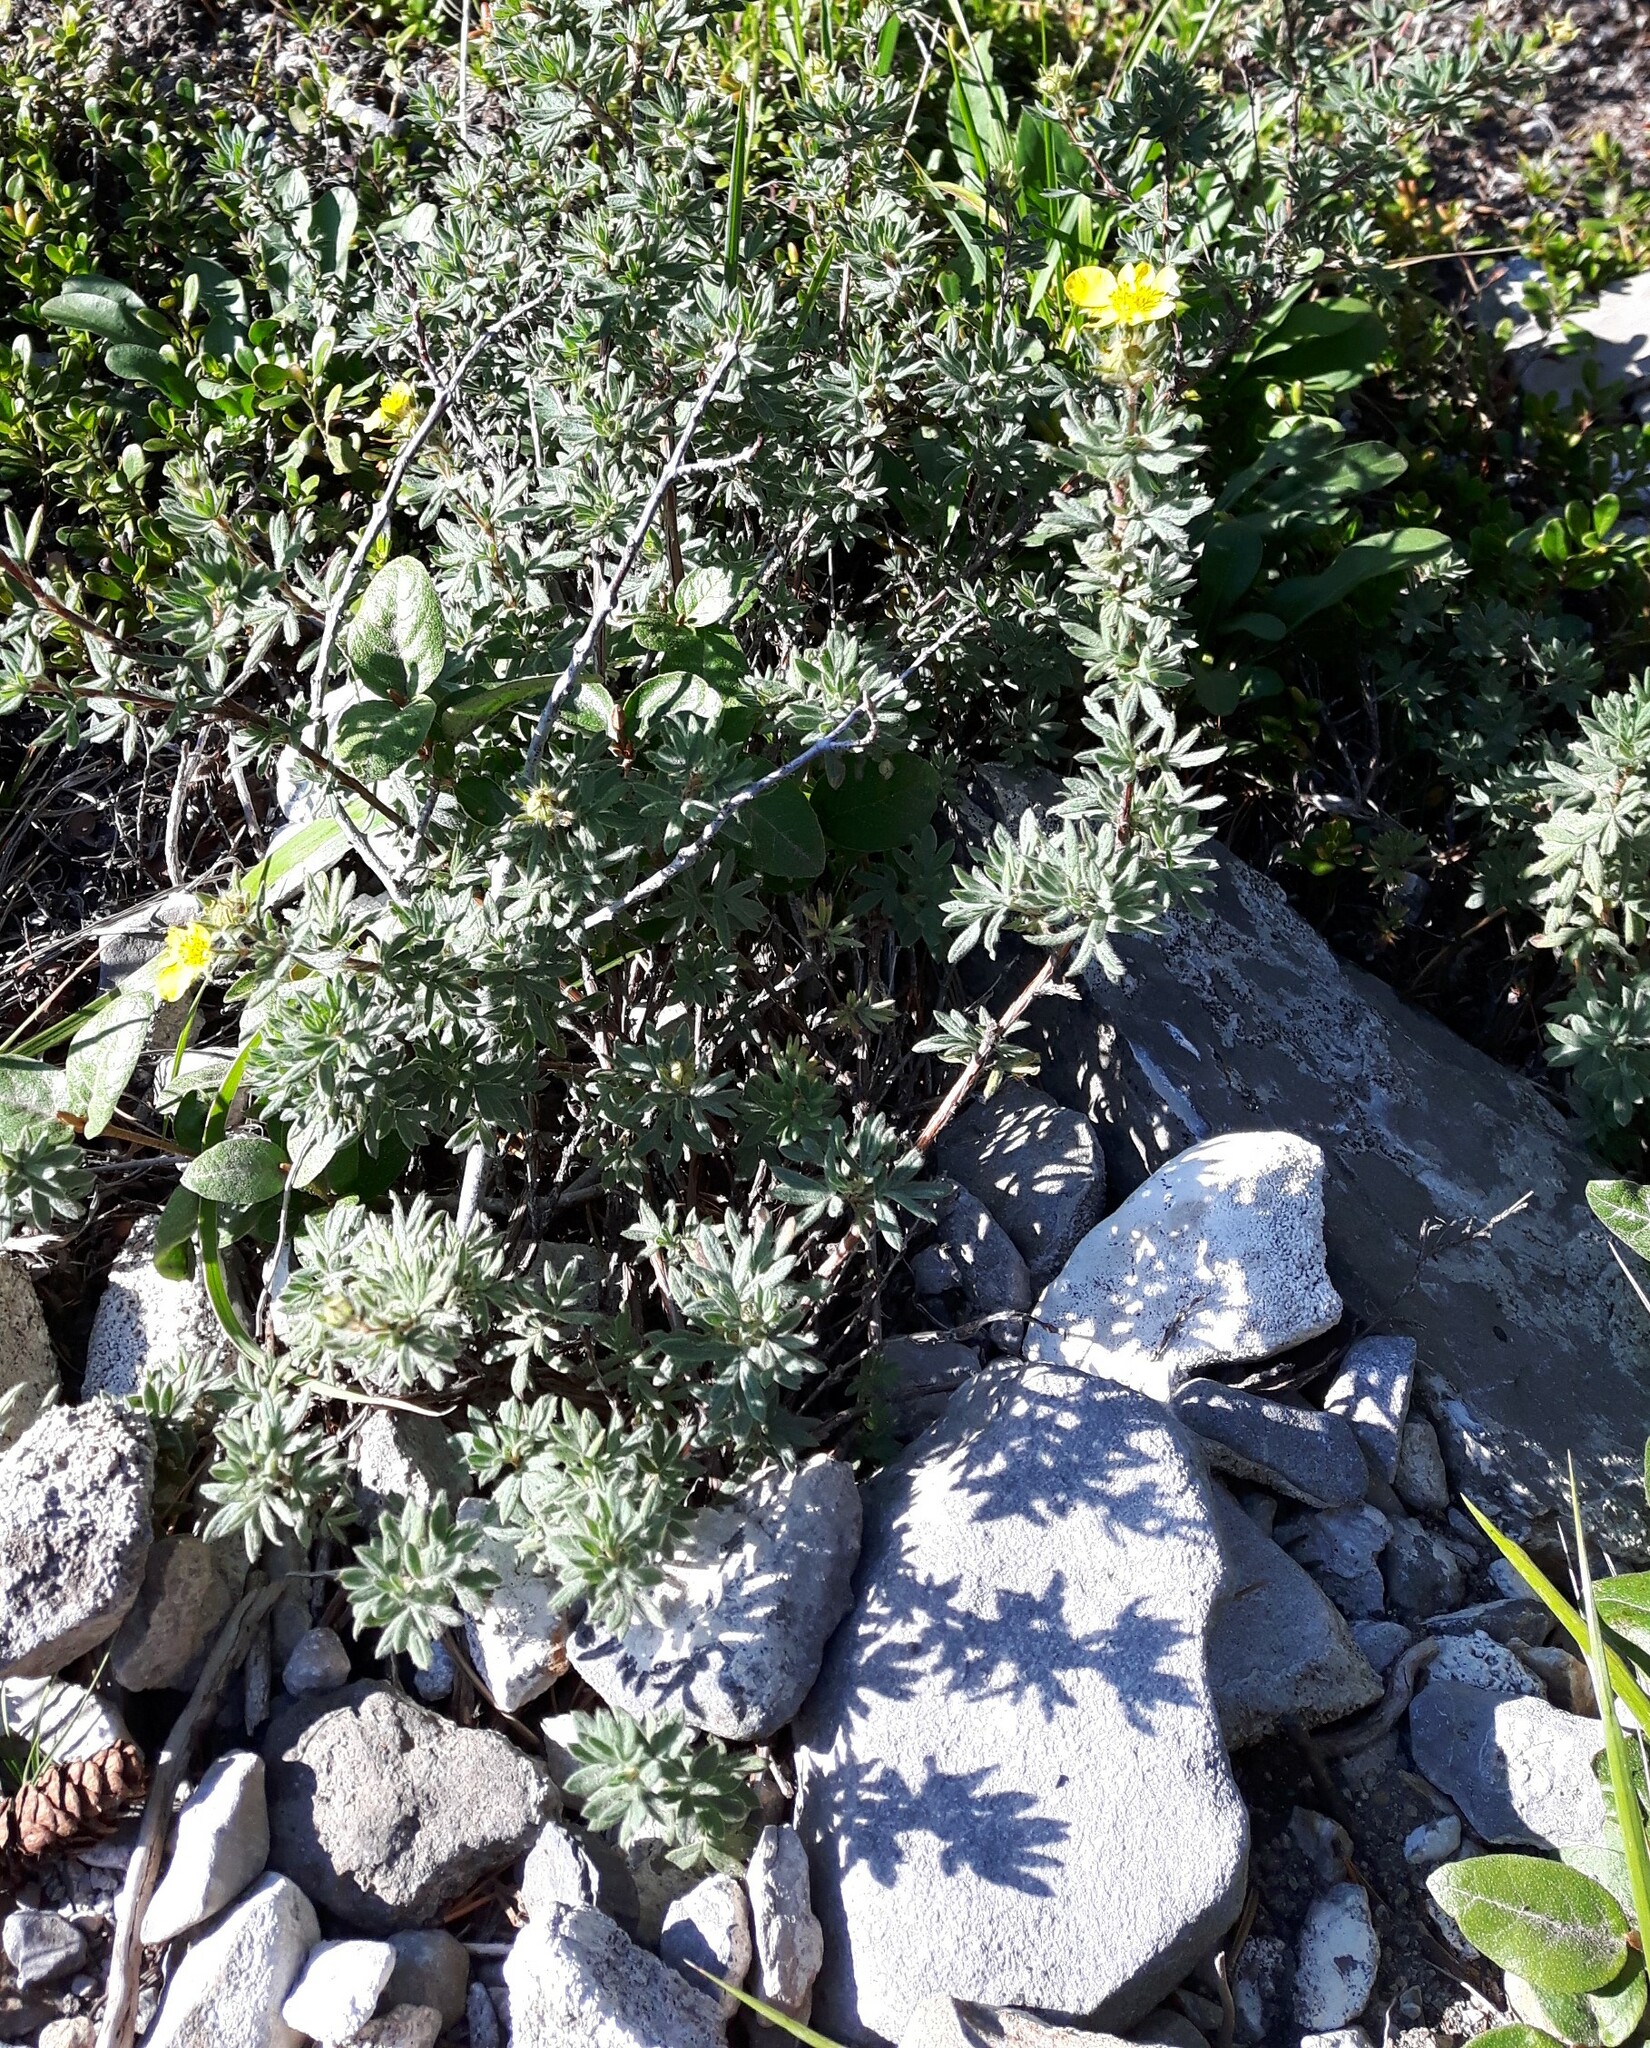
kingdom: Plantae
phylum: Tracheophyta
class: Magnoliopsida
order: Rosales
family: Rosaceae
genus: Dasiphora
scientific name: Dasiphora fruticosa
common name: Shrubby cinquefoil
